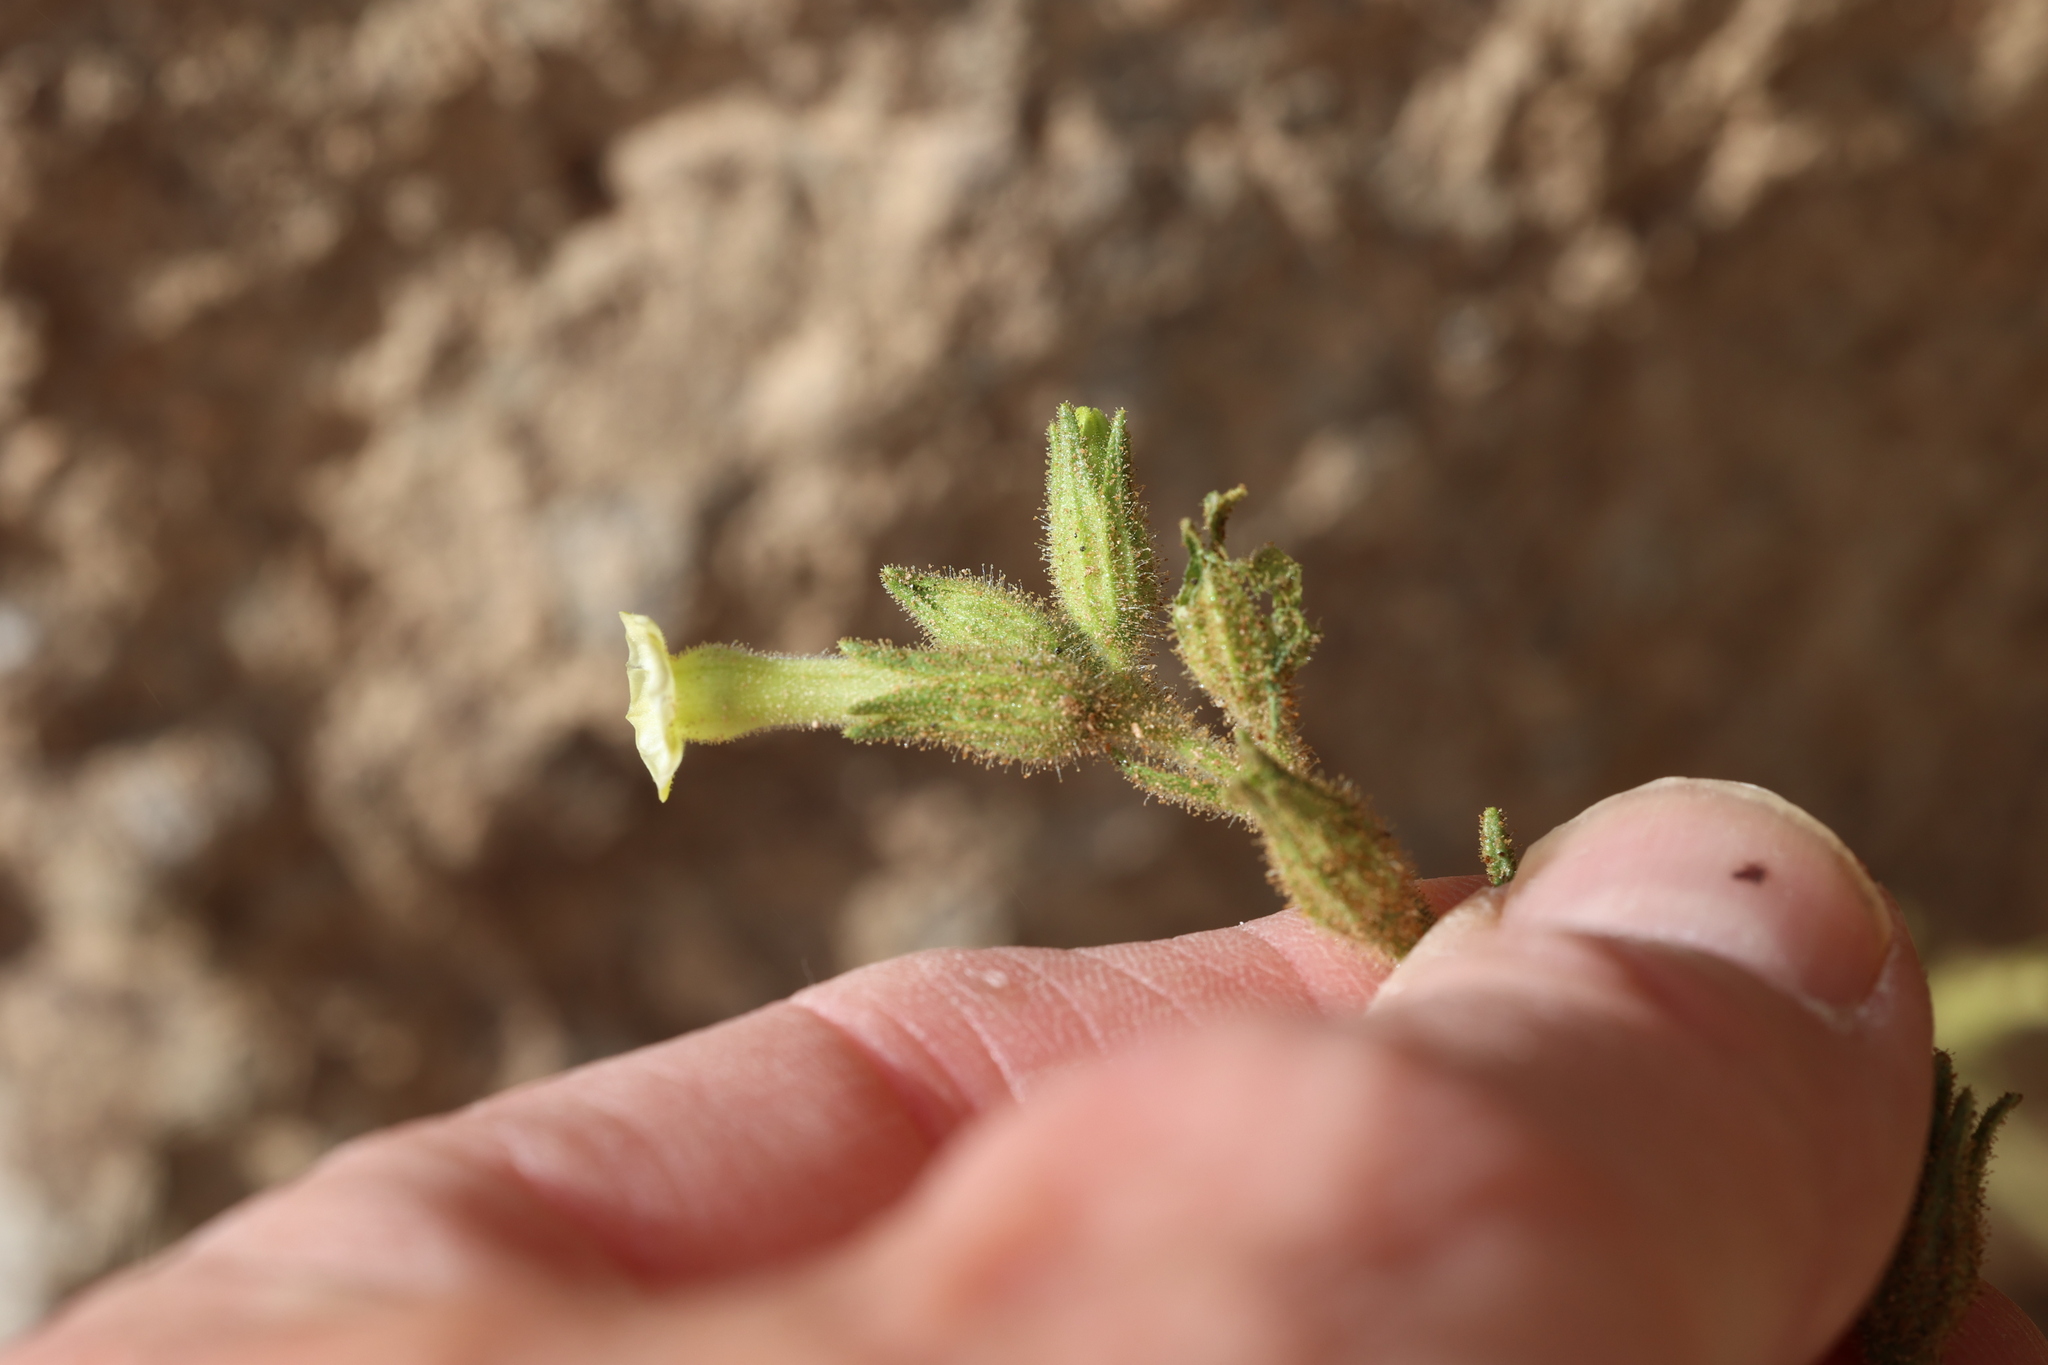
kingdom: Plantae
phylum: Tracheophyta
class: Magnoliopsida
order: Solanales
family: Solanaceae
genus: Nicotiana
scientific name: Nicotiana obtusifolia
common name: Desert tobacco
